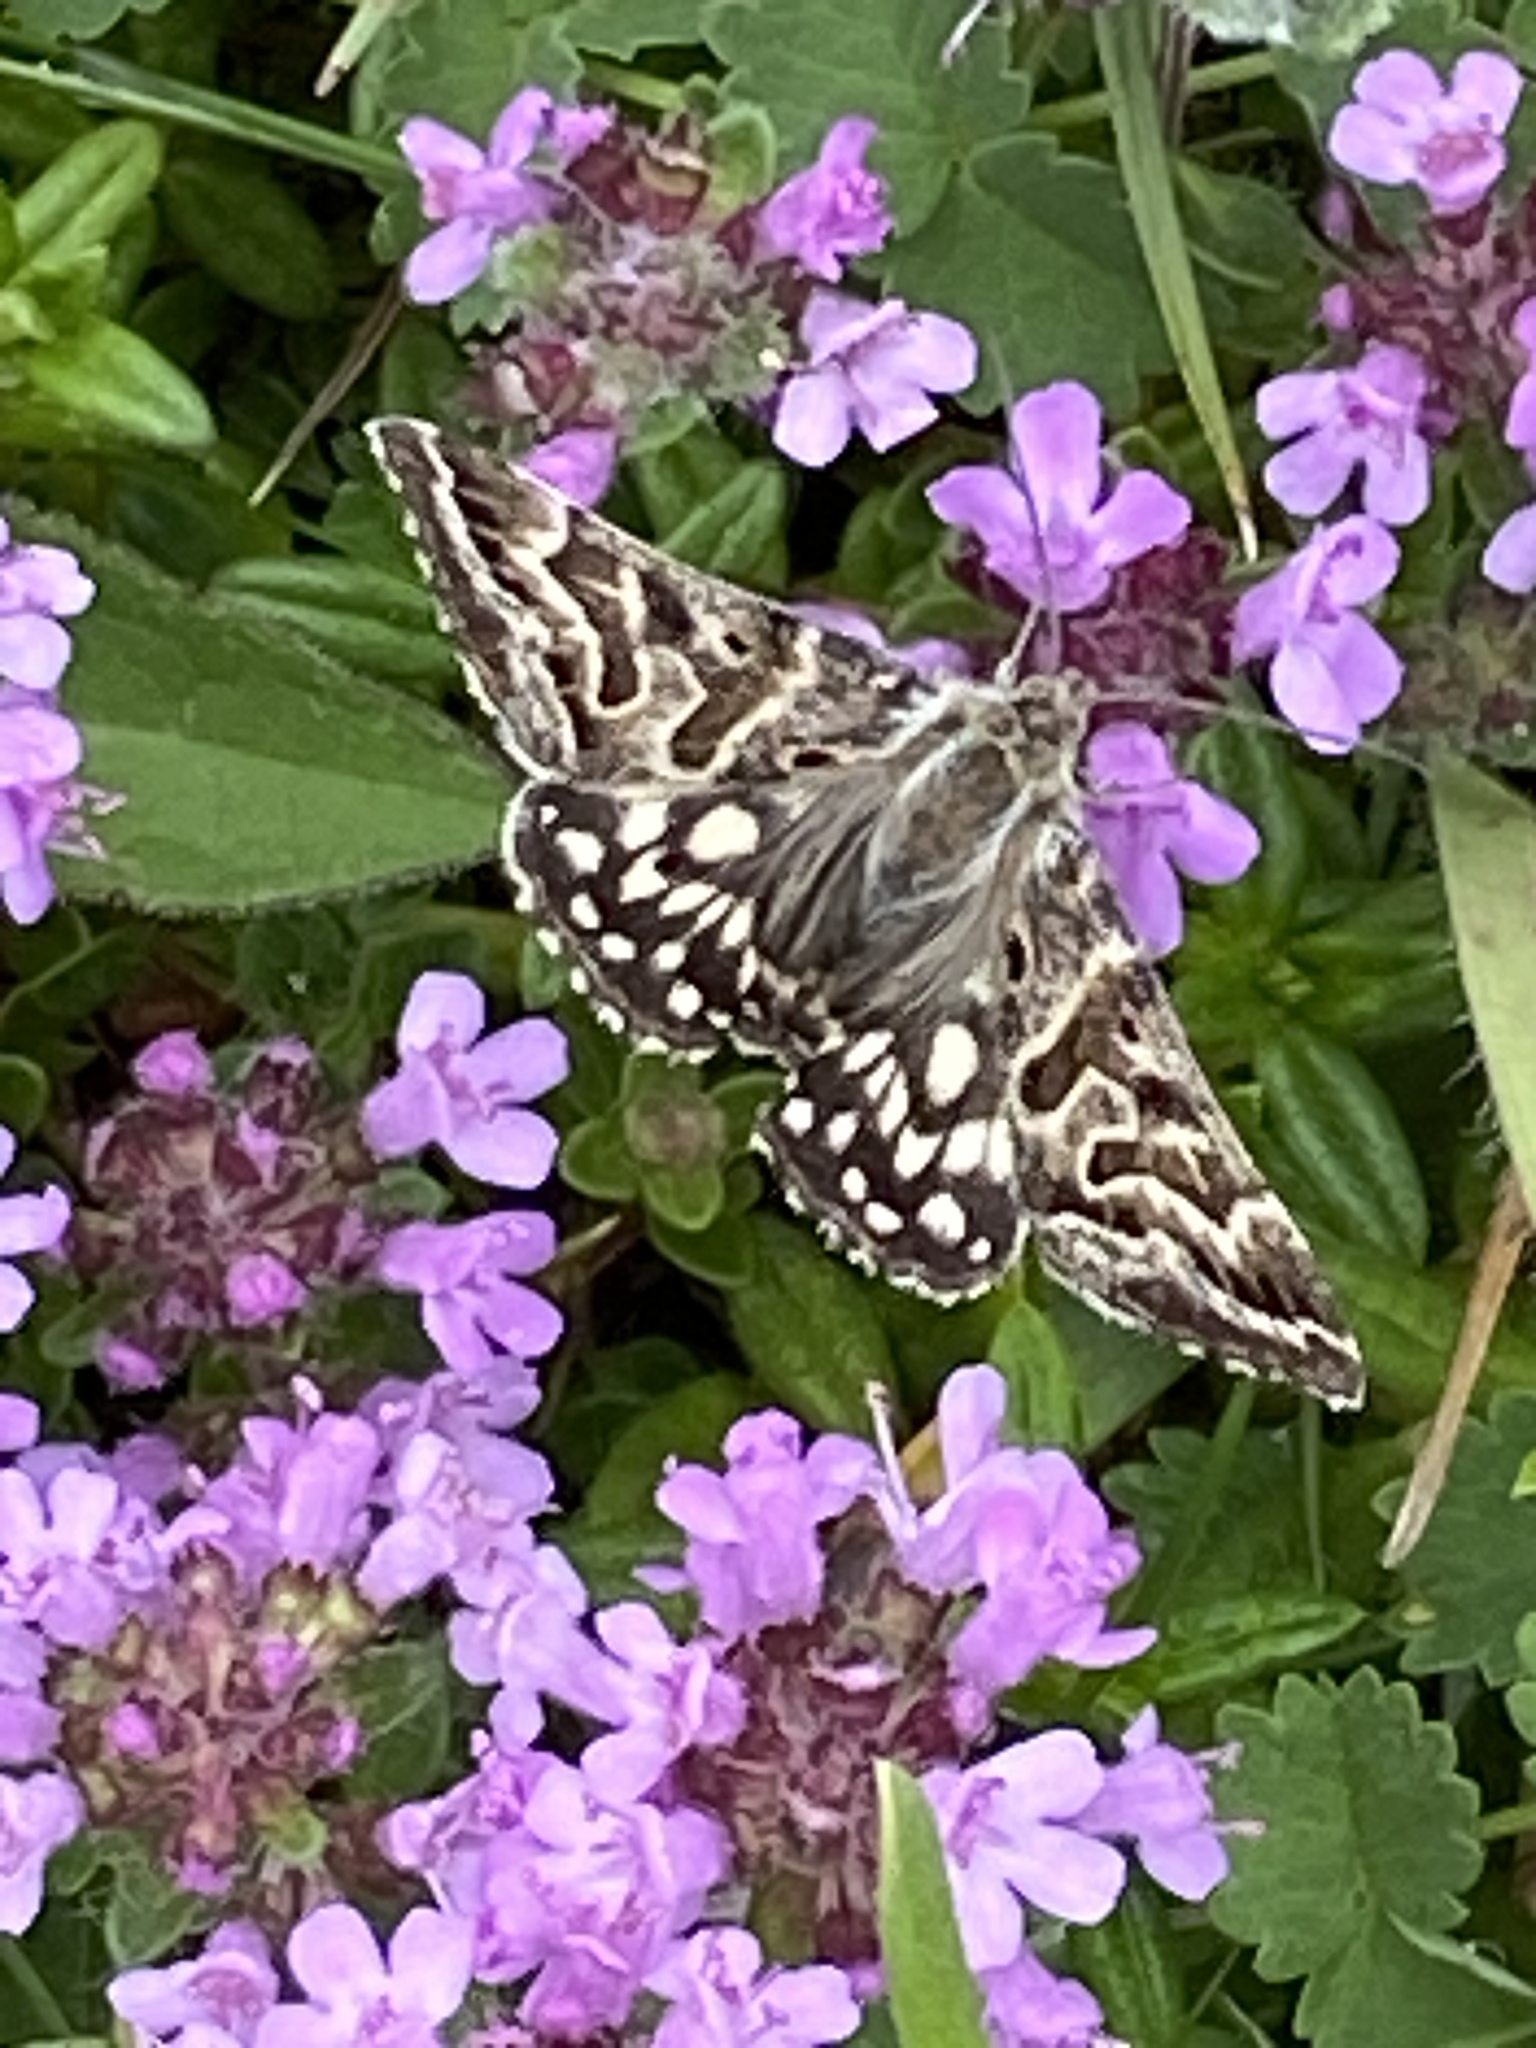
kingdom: Animalia
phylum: Arthropoda
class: Insecta
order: Lepidoptera
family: Erebidae
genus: Callistege
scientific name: Callistege mi
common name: Mother shipton
